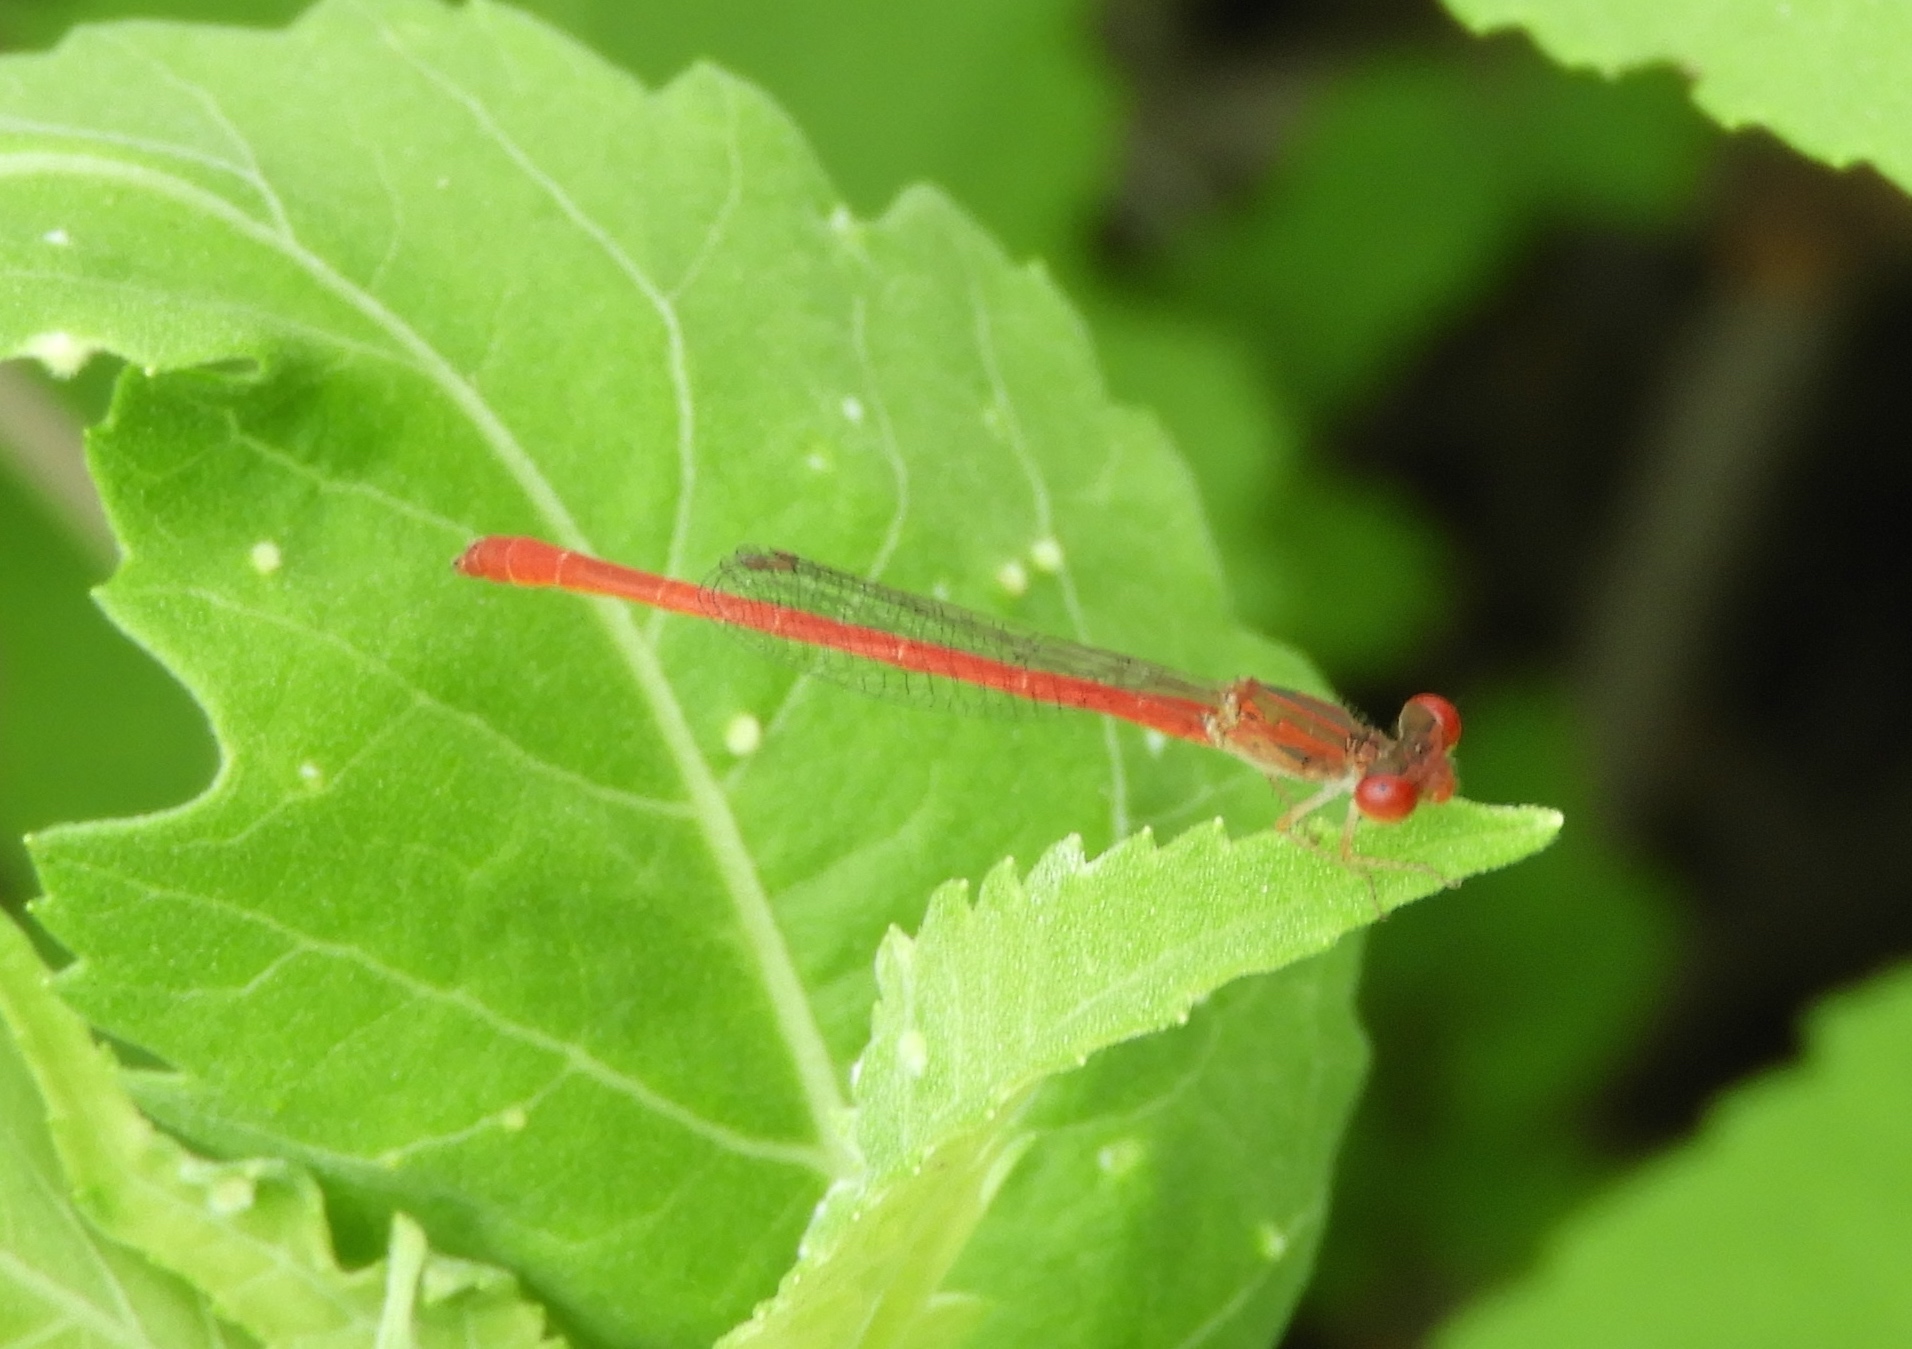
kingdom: Animalia
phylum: Arthropoda
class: Insecta
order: Odonata
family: Coenagrionidae
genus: Telebasis
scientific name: Telebasis salva
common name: Desert firetail
